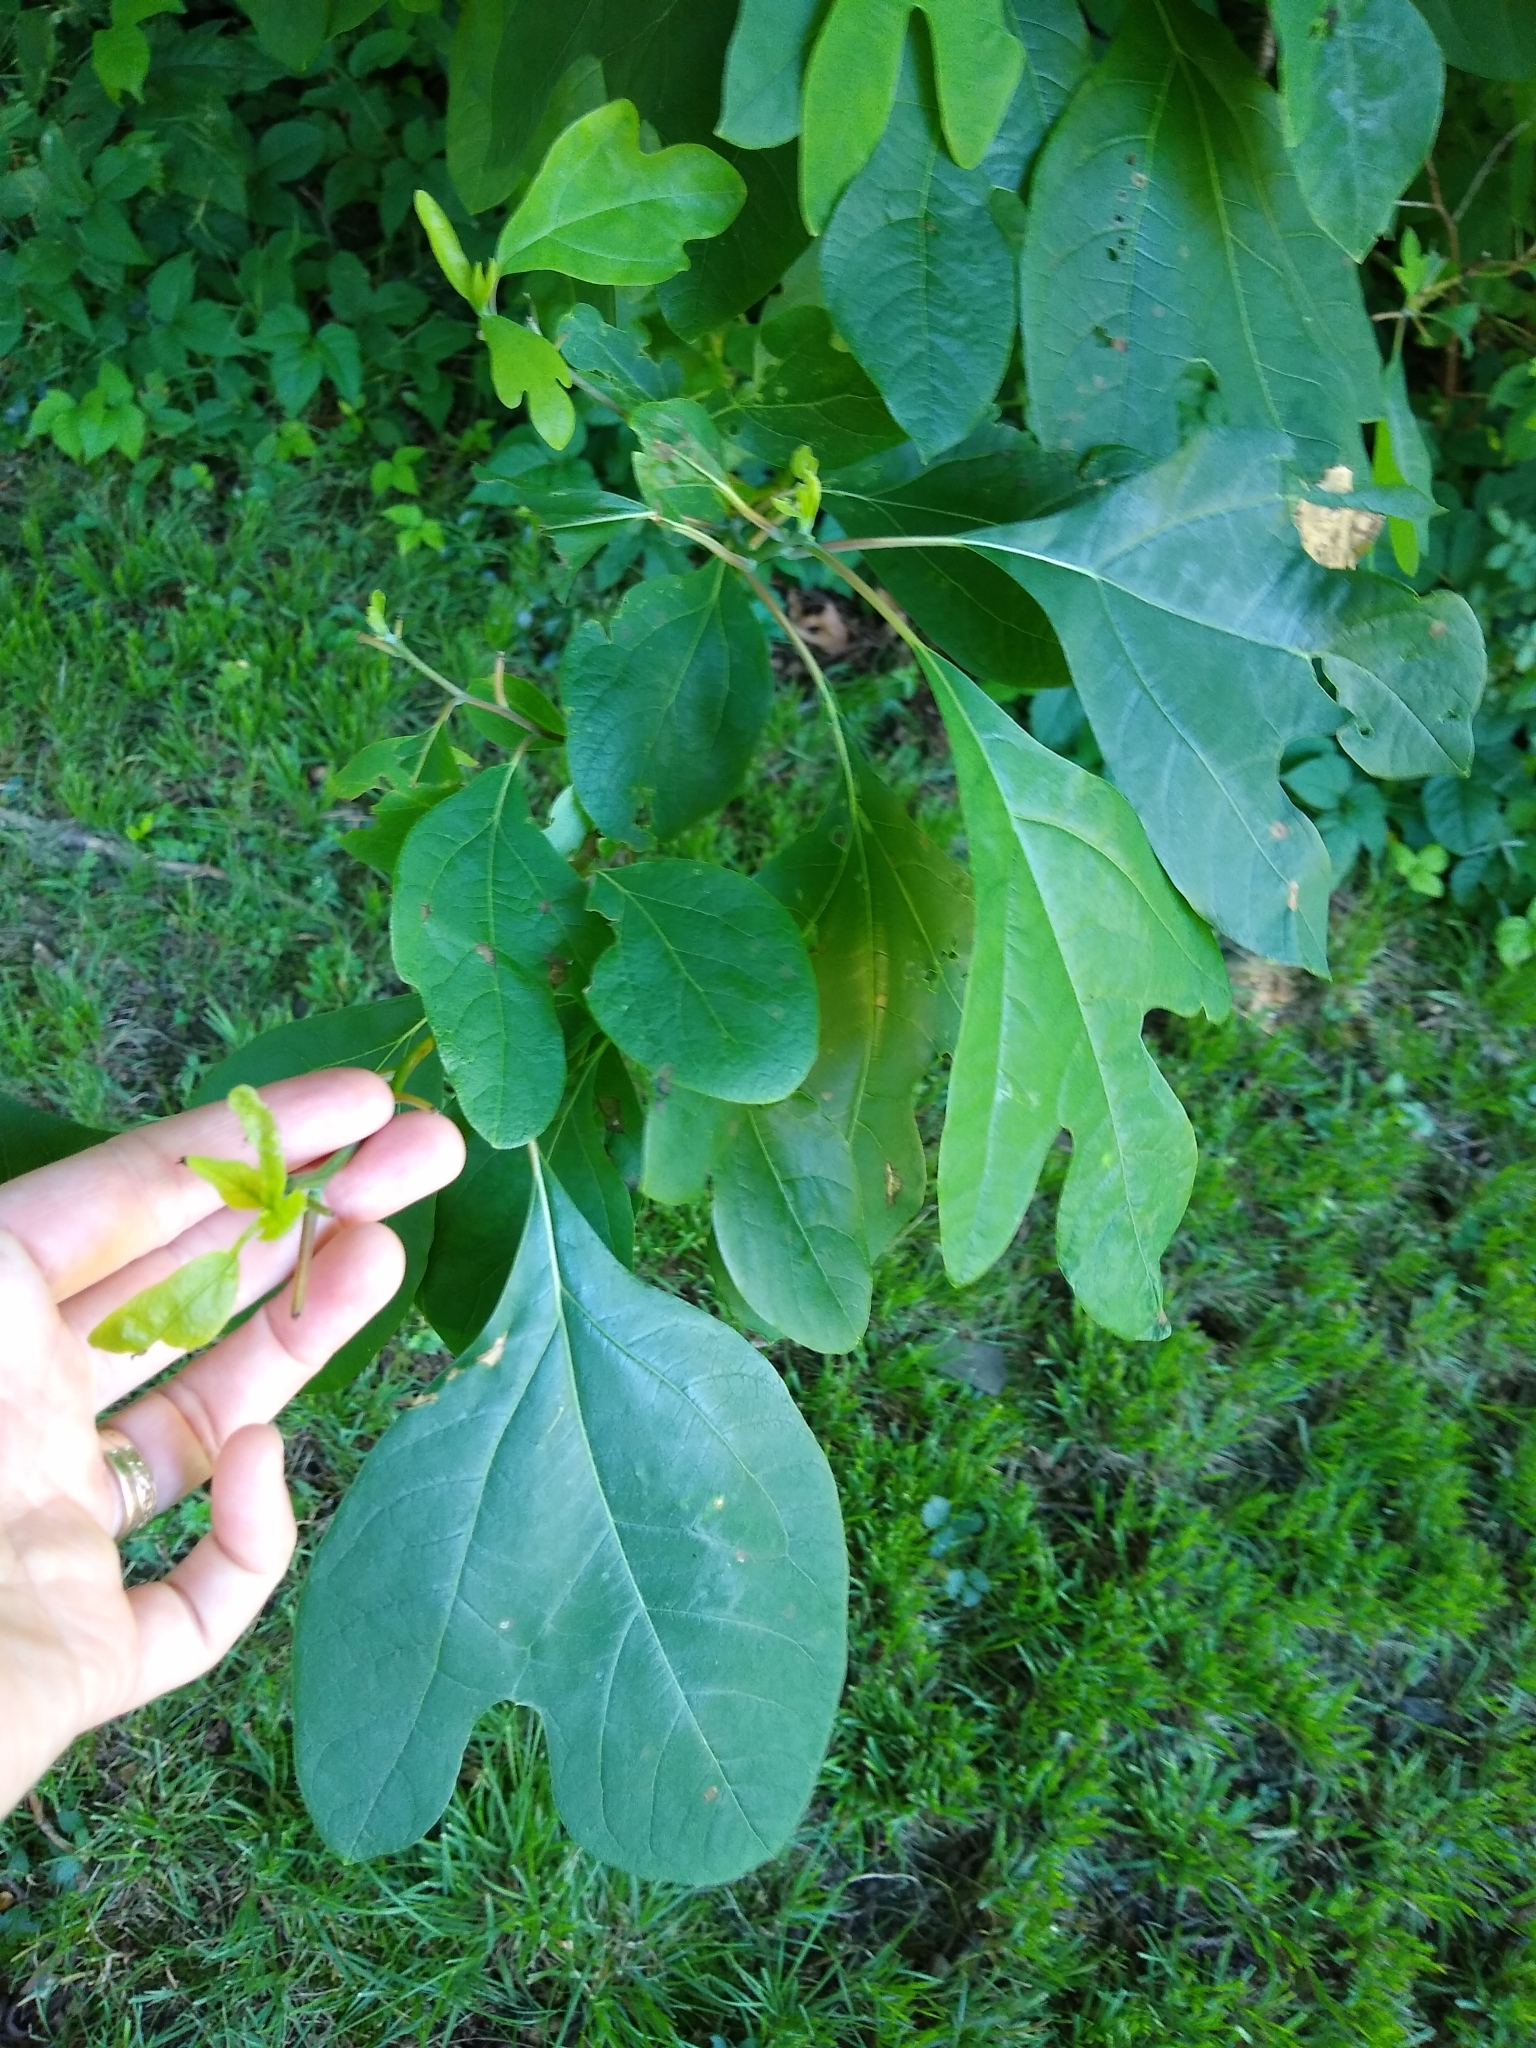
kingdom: Plantae
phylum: Tracheophyta
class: Magnoliopsida
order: Laurales
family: Lauraceae
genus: Sassafras
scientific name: Sassafras albidum
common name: Sassafras
